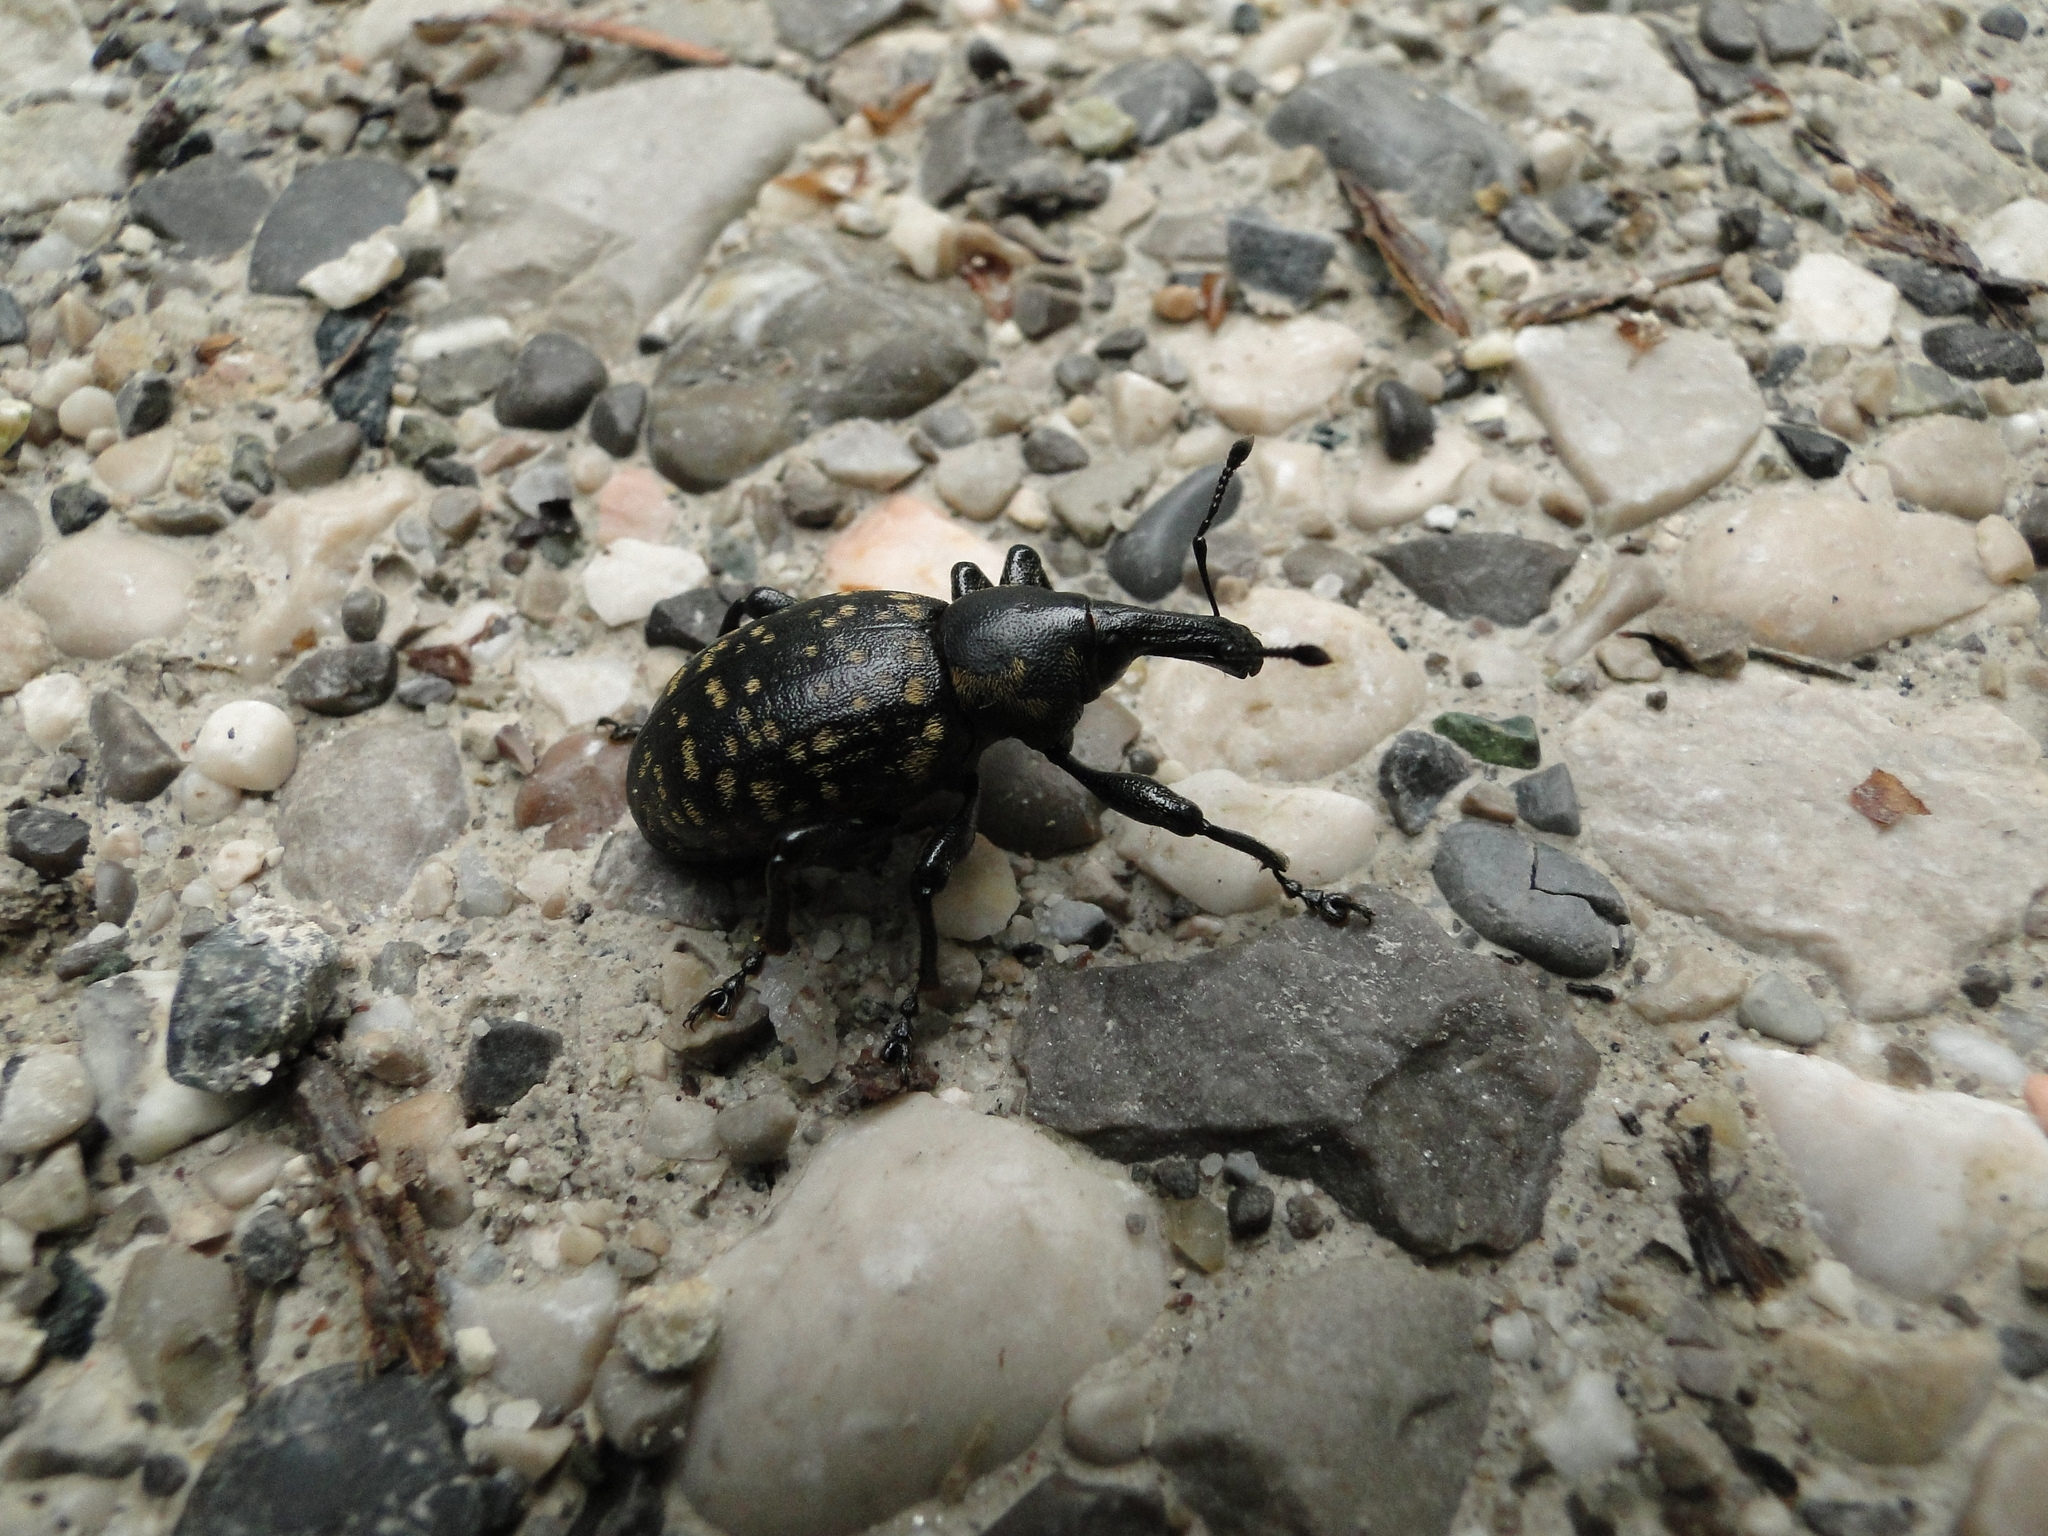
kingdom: Animalia
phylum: Arthropoda
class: Insecta
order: Coleoptera
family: Curculionidae
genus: Liparus
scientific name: Liparus glabrirostris
